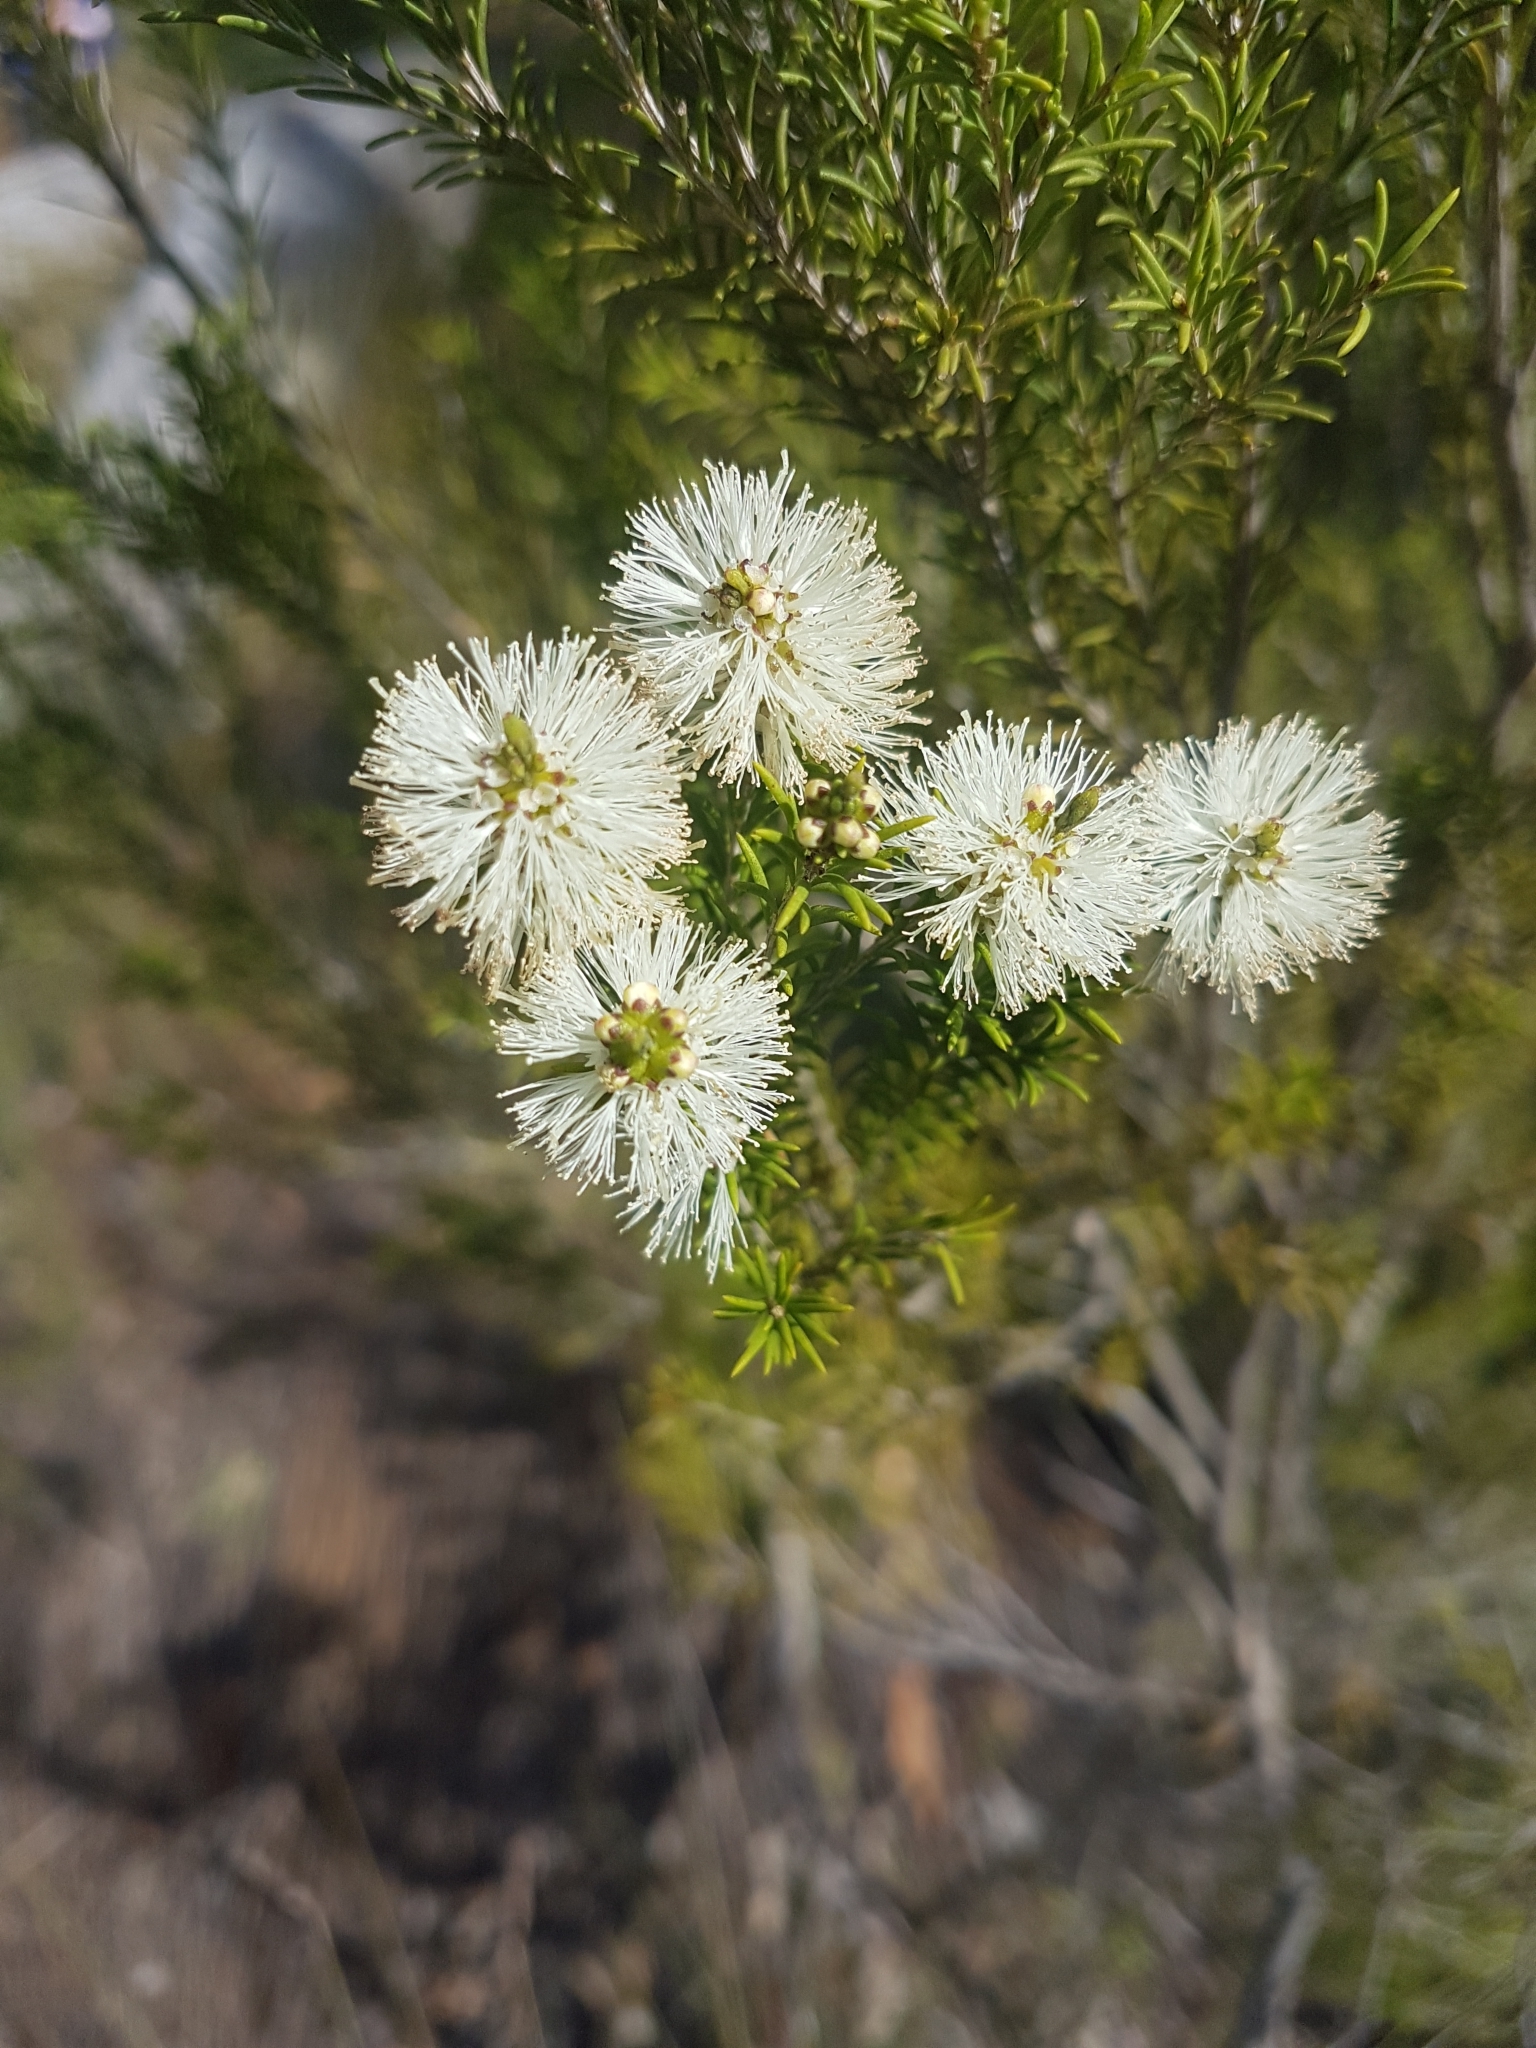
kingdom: Plantae
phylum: Tracheophyta
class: Magnoliopsida
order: Myrtales
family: Myrtaceae
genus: Melaleuca
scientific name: Melaleuca ericifolia
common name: Paperbark teatree
